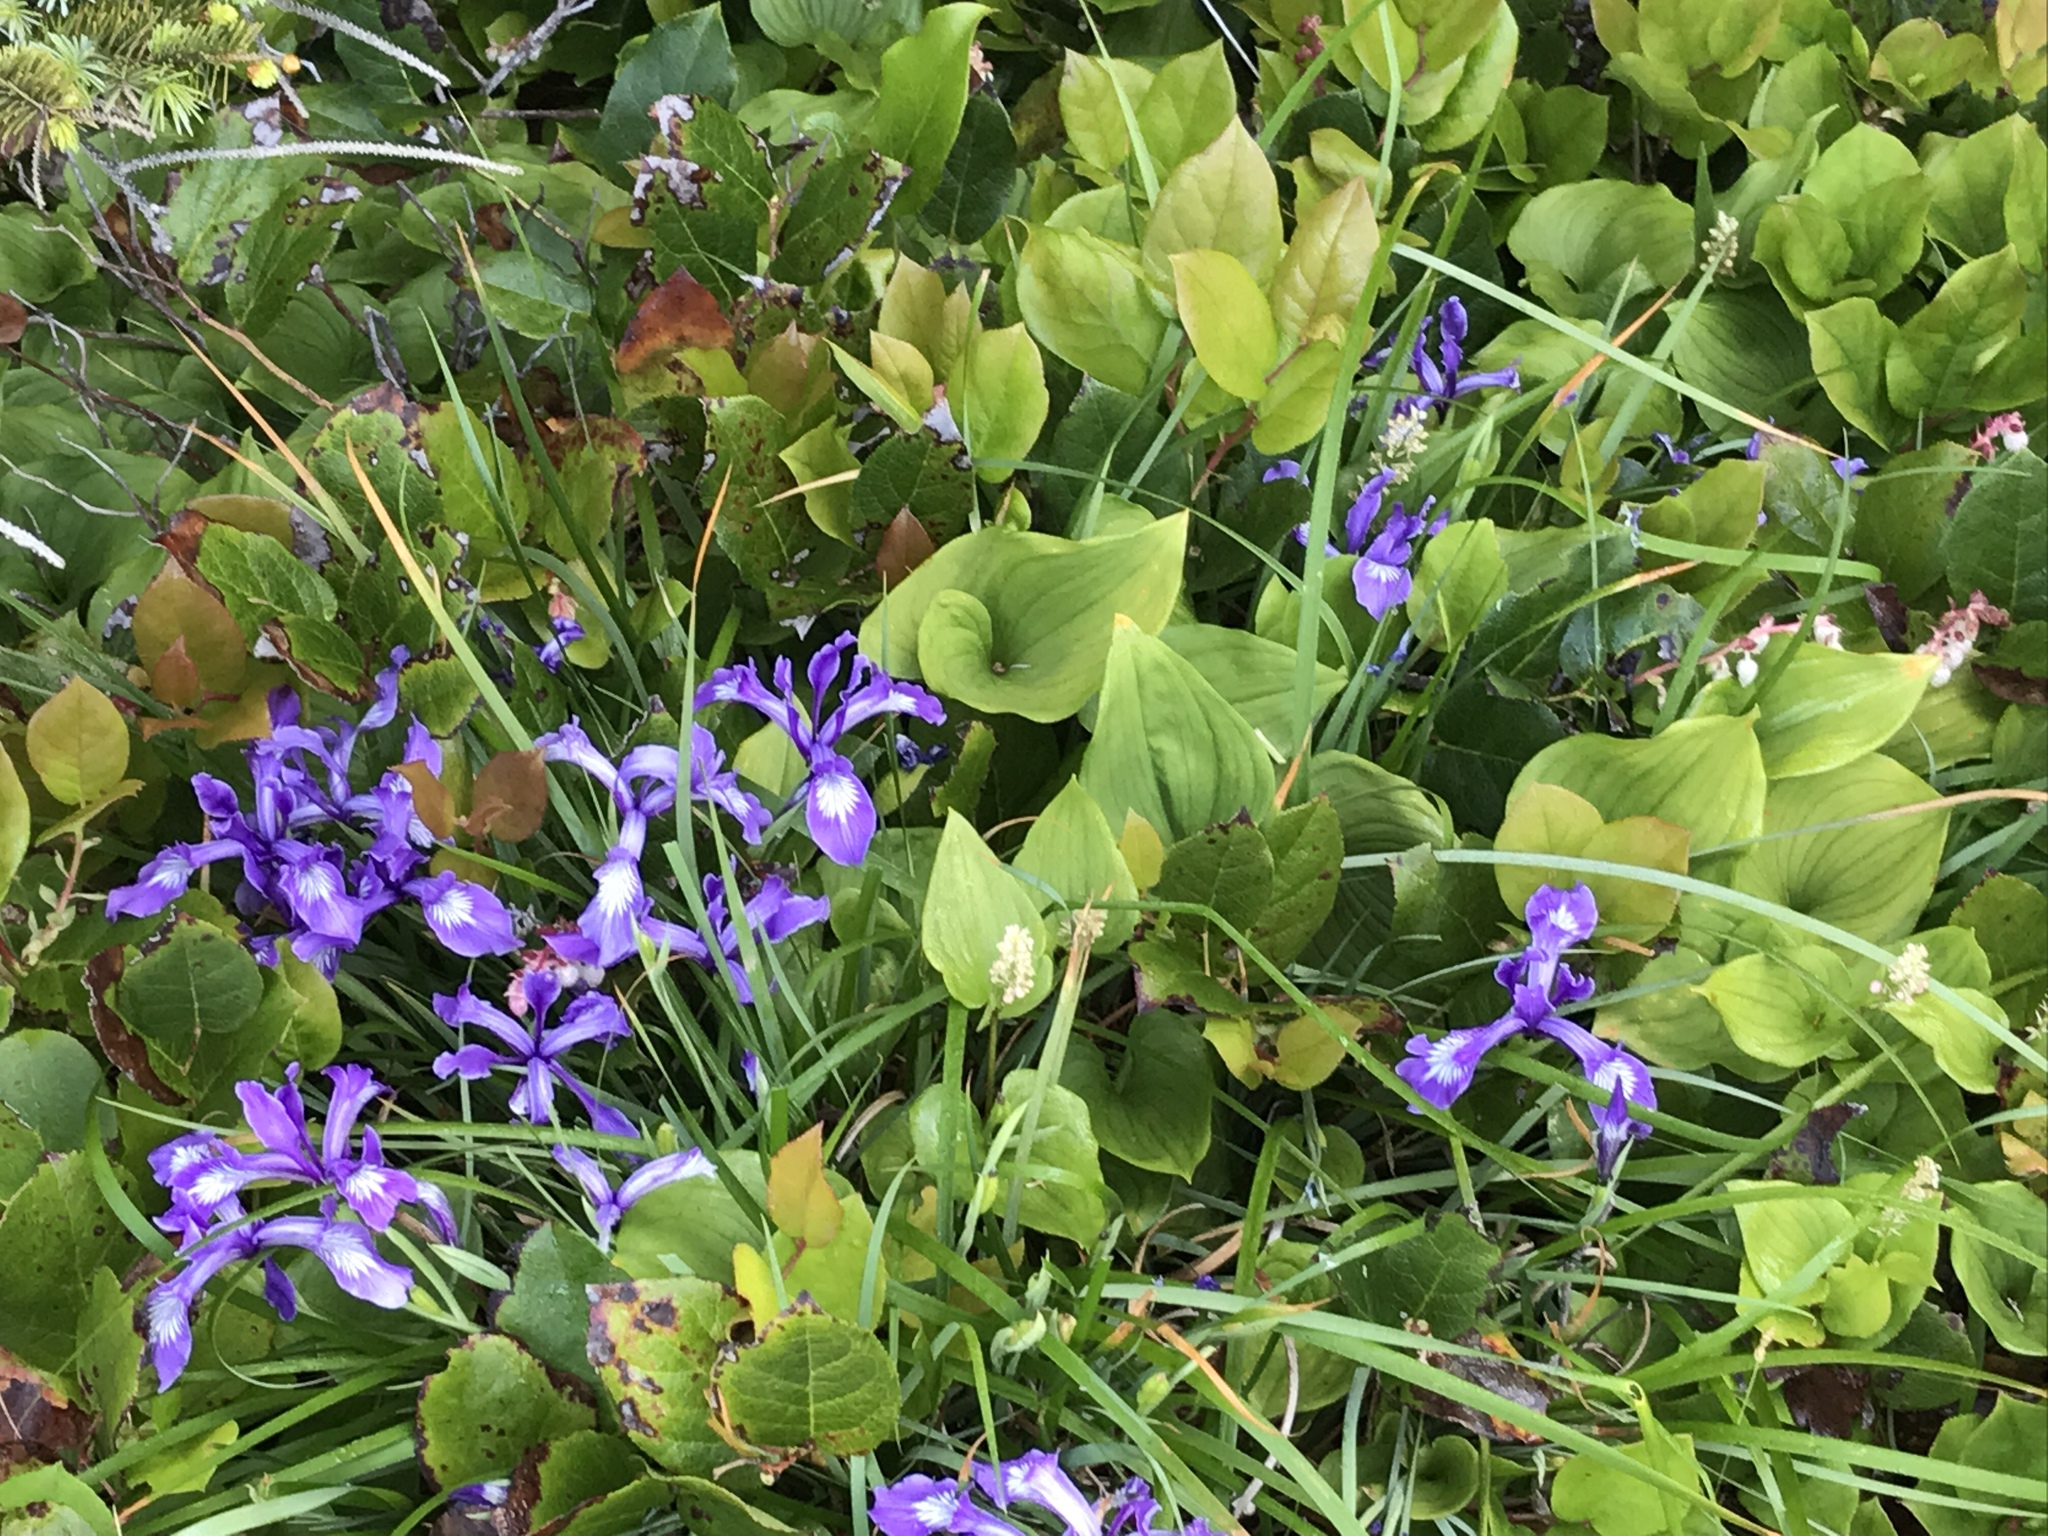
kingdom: Plantae
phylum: Tracheophyta
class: Liliopsida
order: Asparagales
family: Iridaceae
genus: Iris
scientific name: Iris tenax
